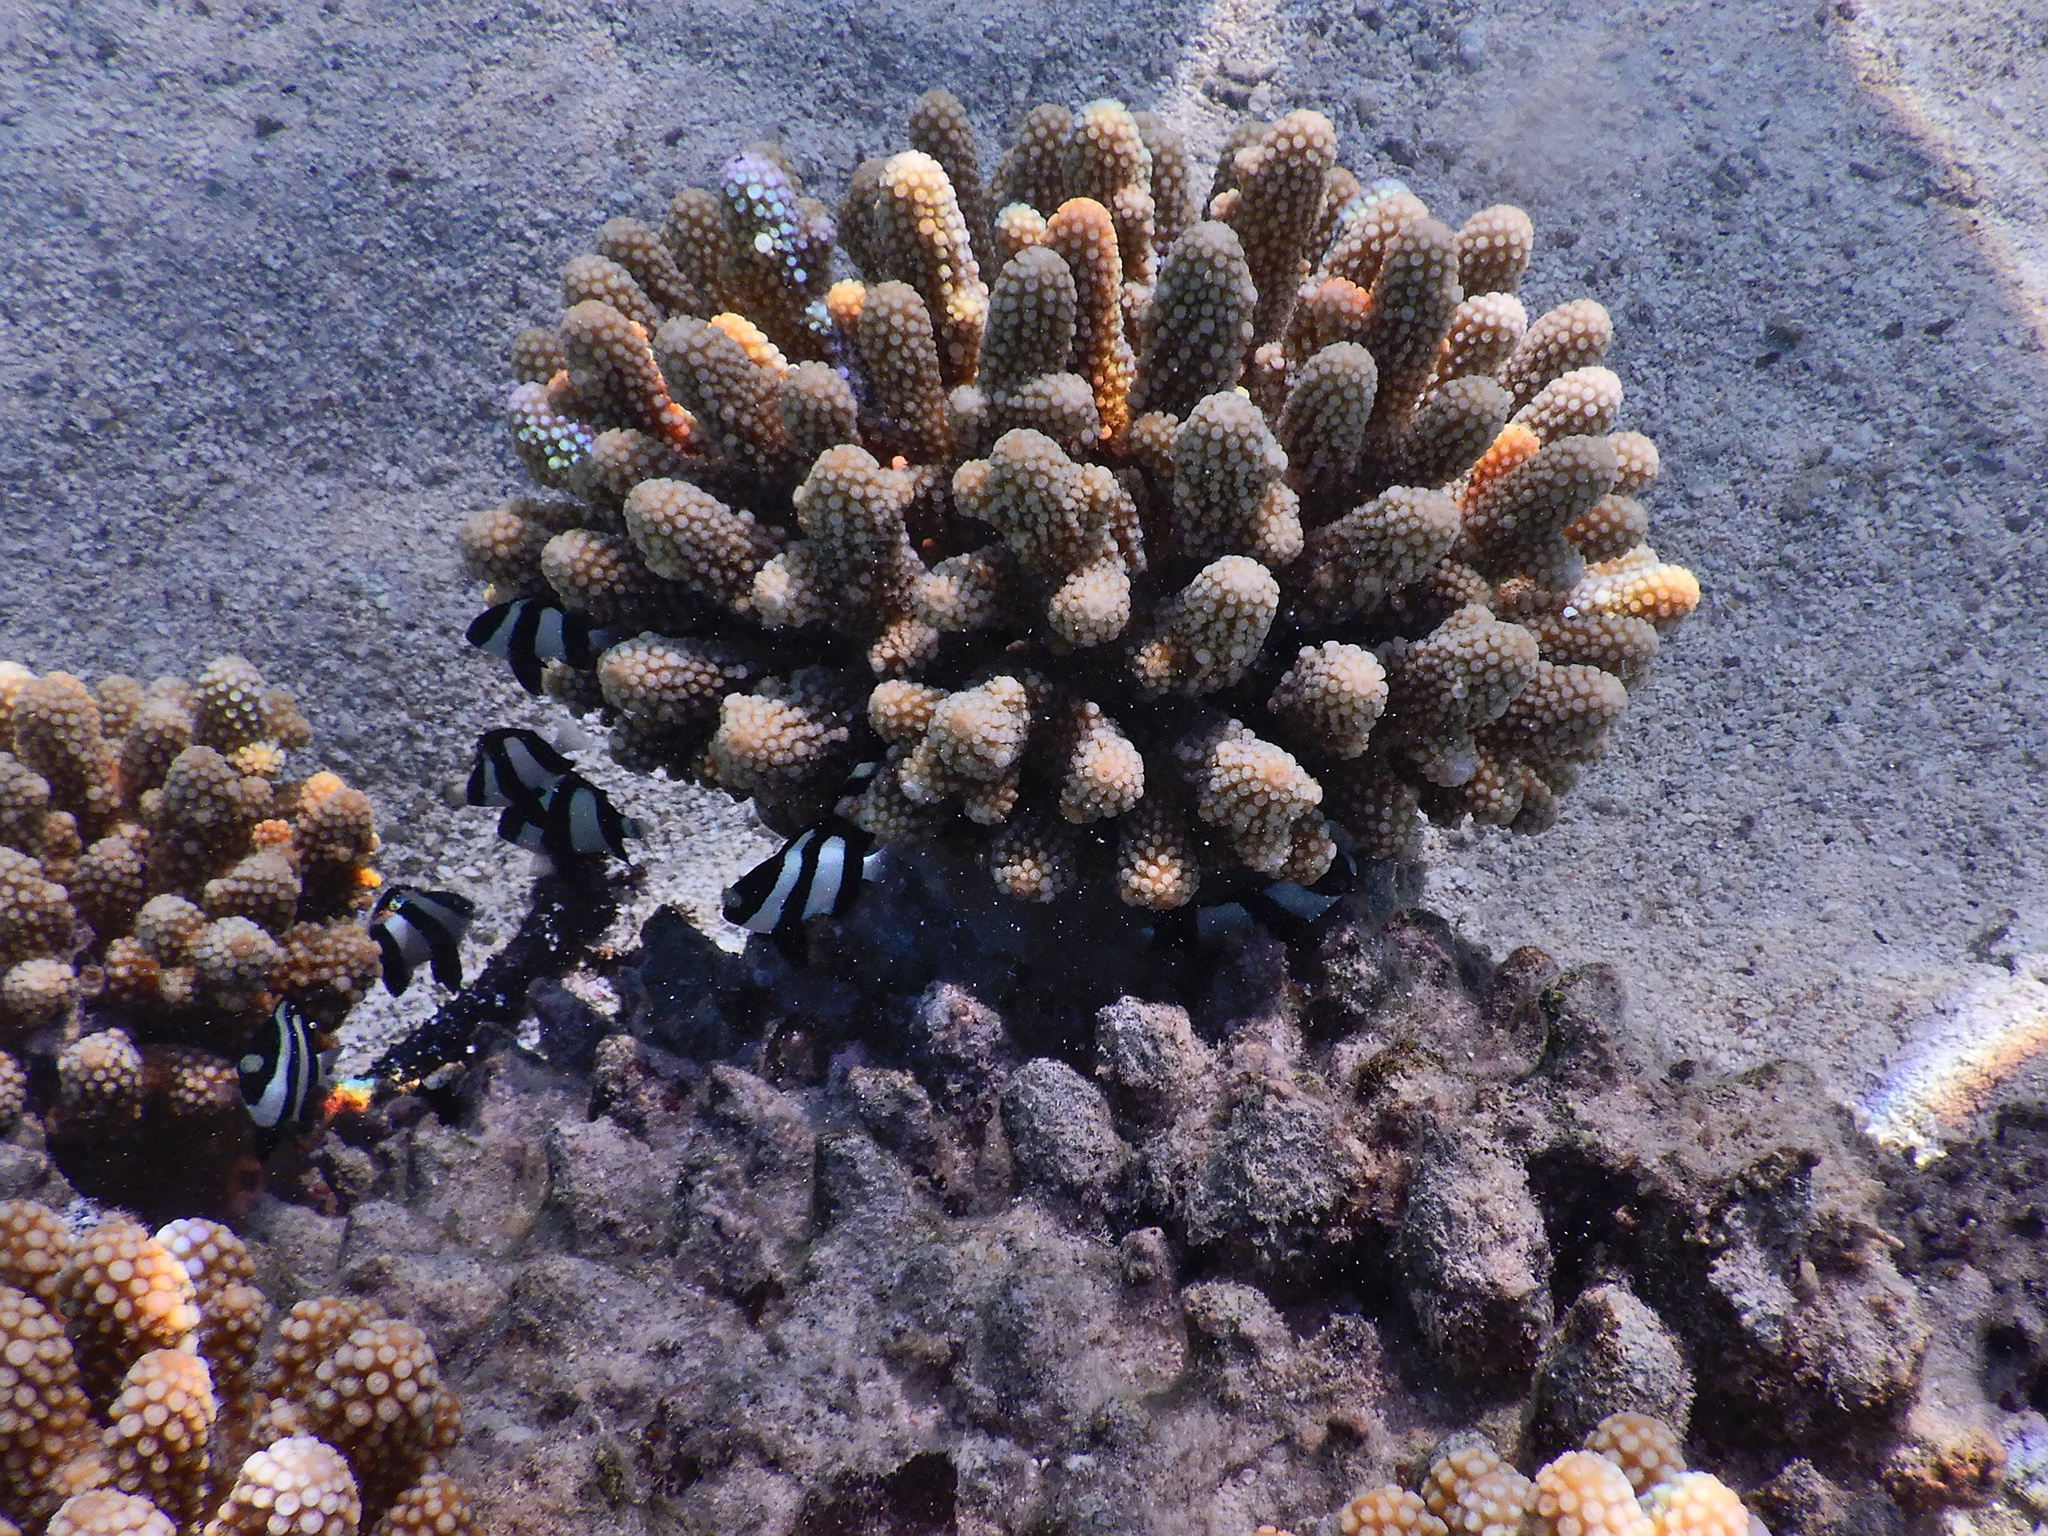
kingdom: Animalia
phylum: Chordata
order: Perciformes
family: Pomacentridae
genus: Dascyllus
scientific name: Dascyllus aruanus
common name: Humbug dascyllus
